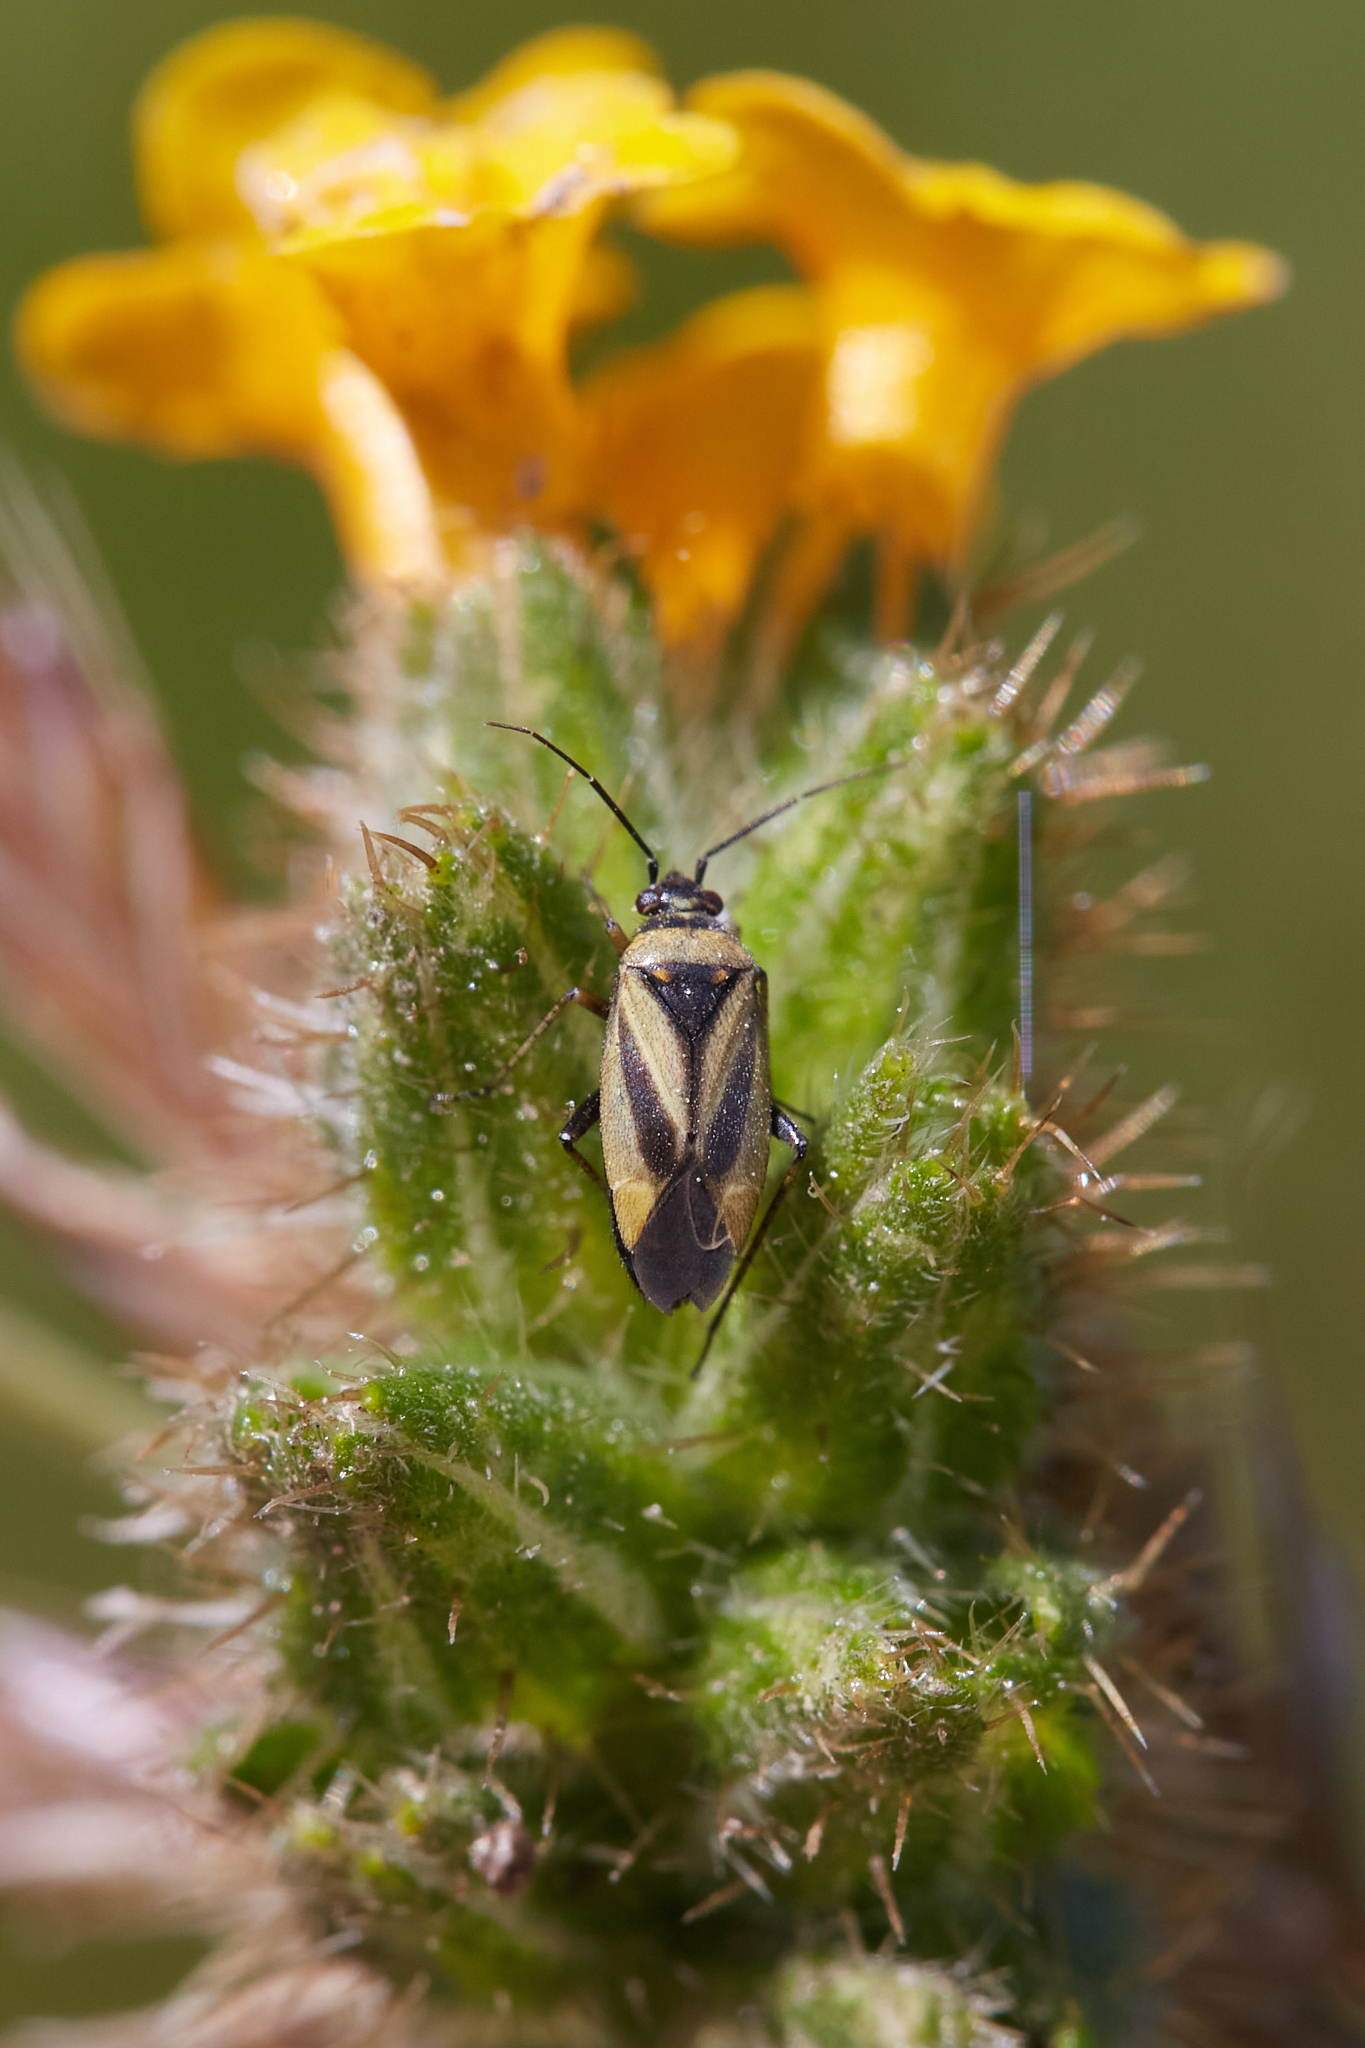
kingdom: Animalia
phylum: Arthropoda
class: Insecta
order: Hemiptera
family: Miridae
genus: Plagiognathus
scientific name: Plagiognathus moerens
